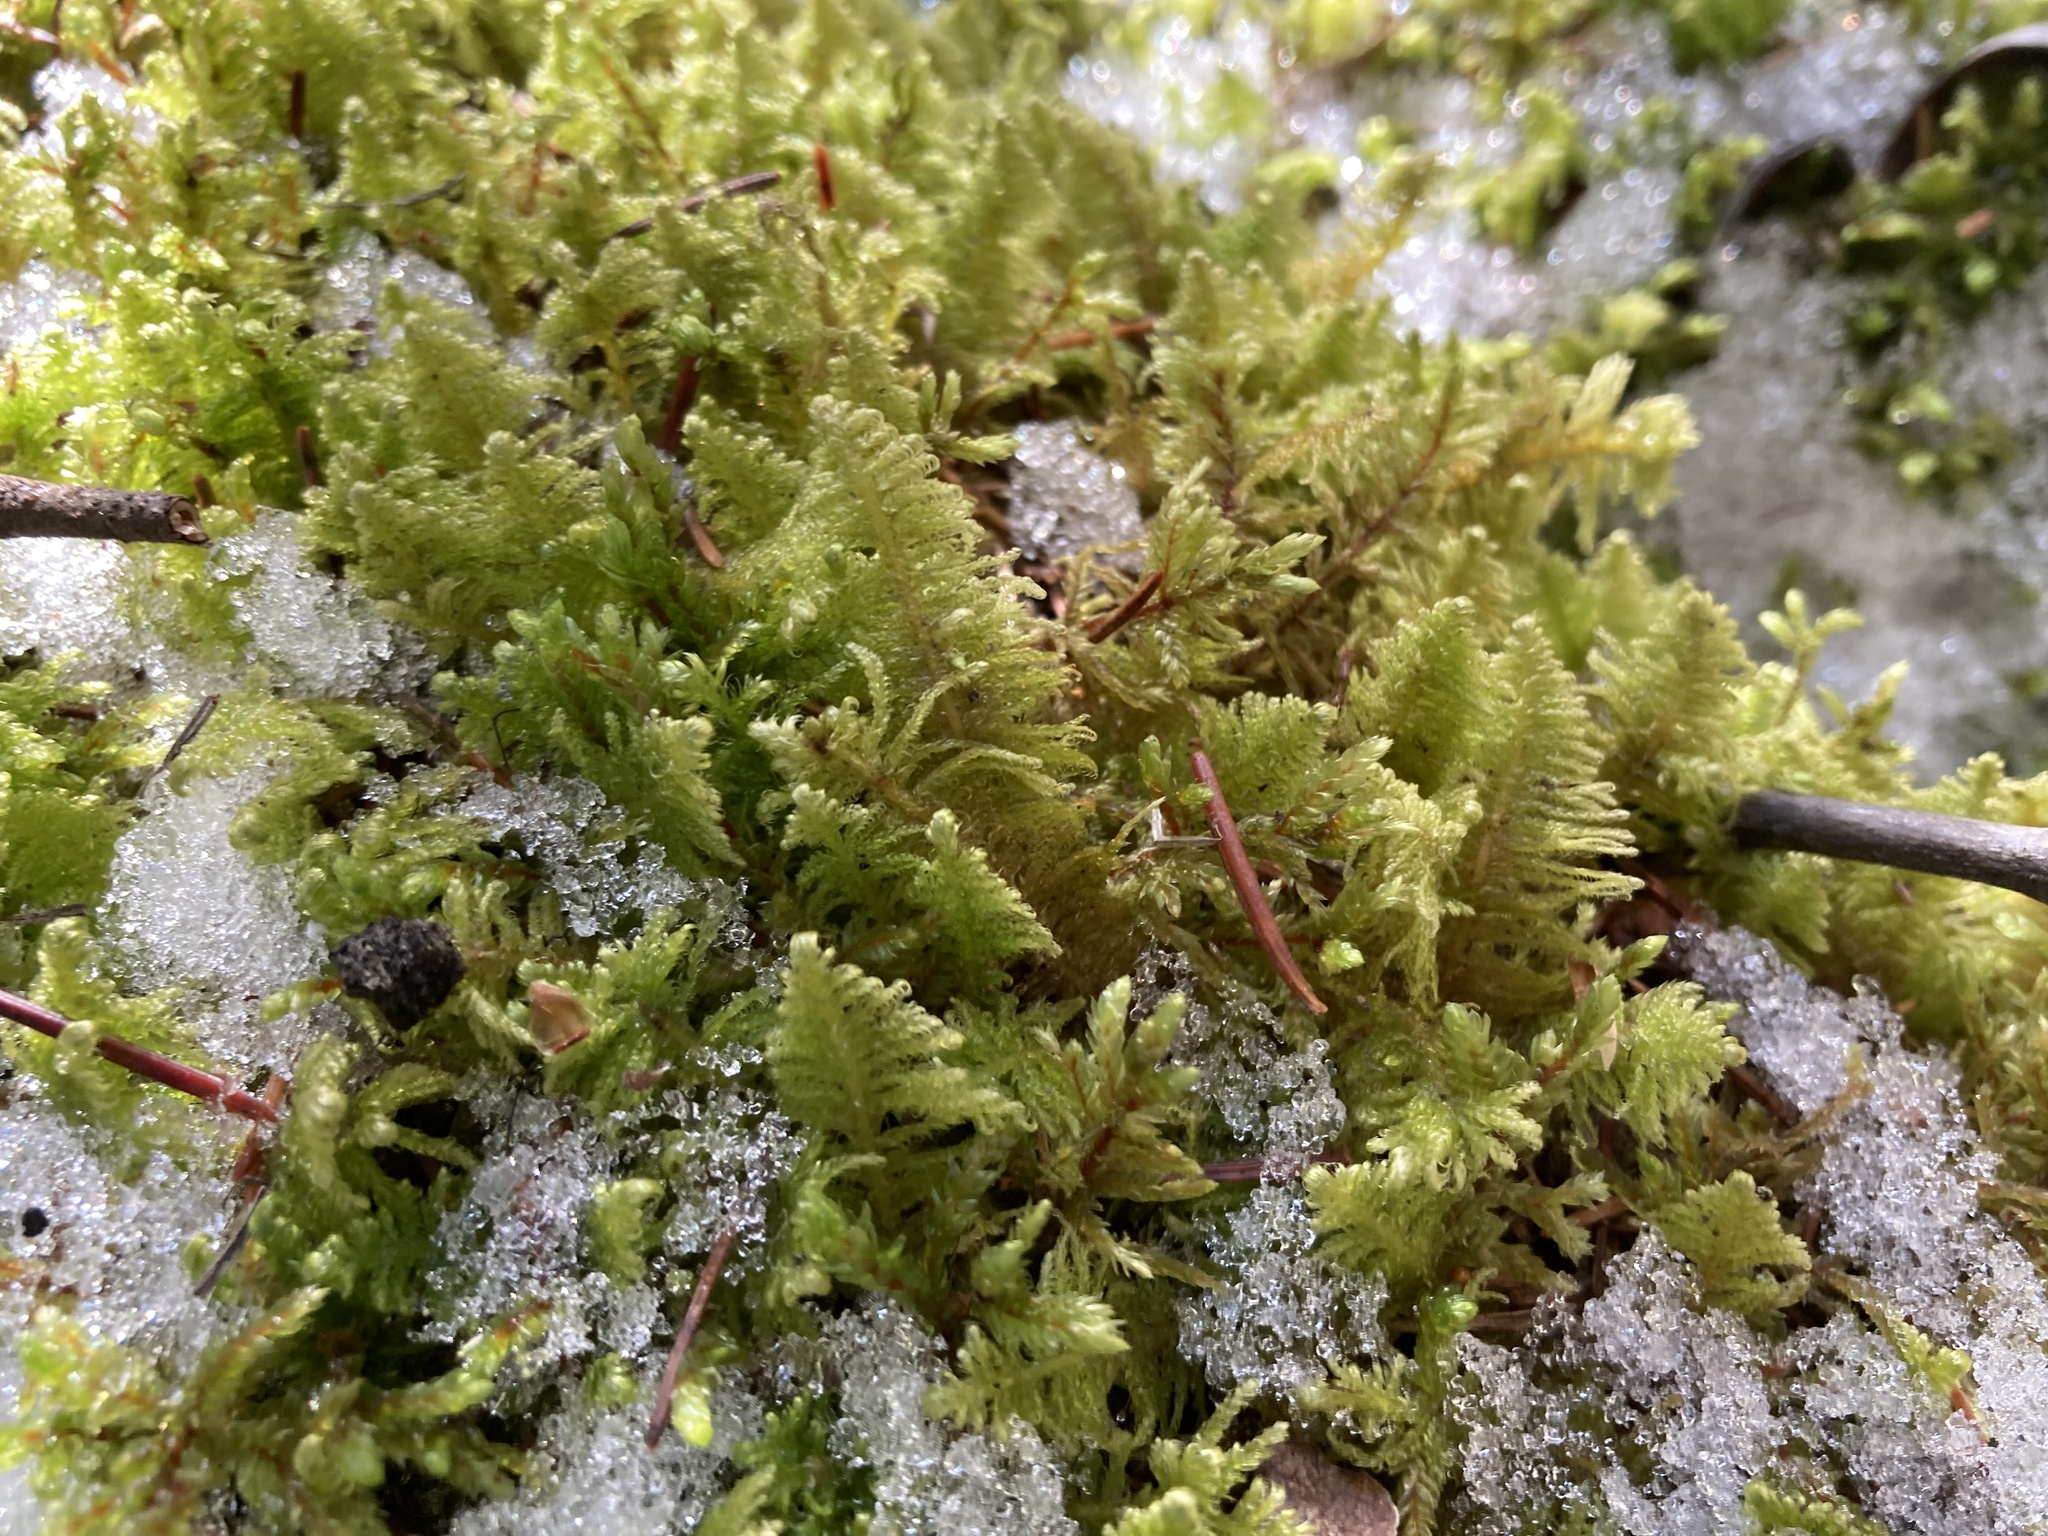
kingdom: Plantae
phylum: Bryophyta
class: Bryopsida
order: Hypnales
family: Pylaisiaceae
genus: Ptilium
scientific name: Ptilium crista-castrensis
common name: Knight's plume moss
